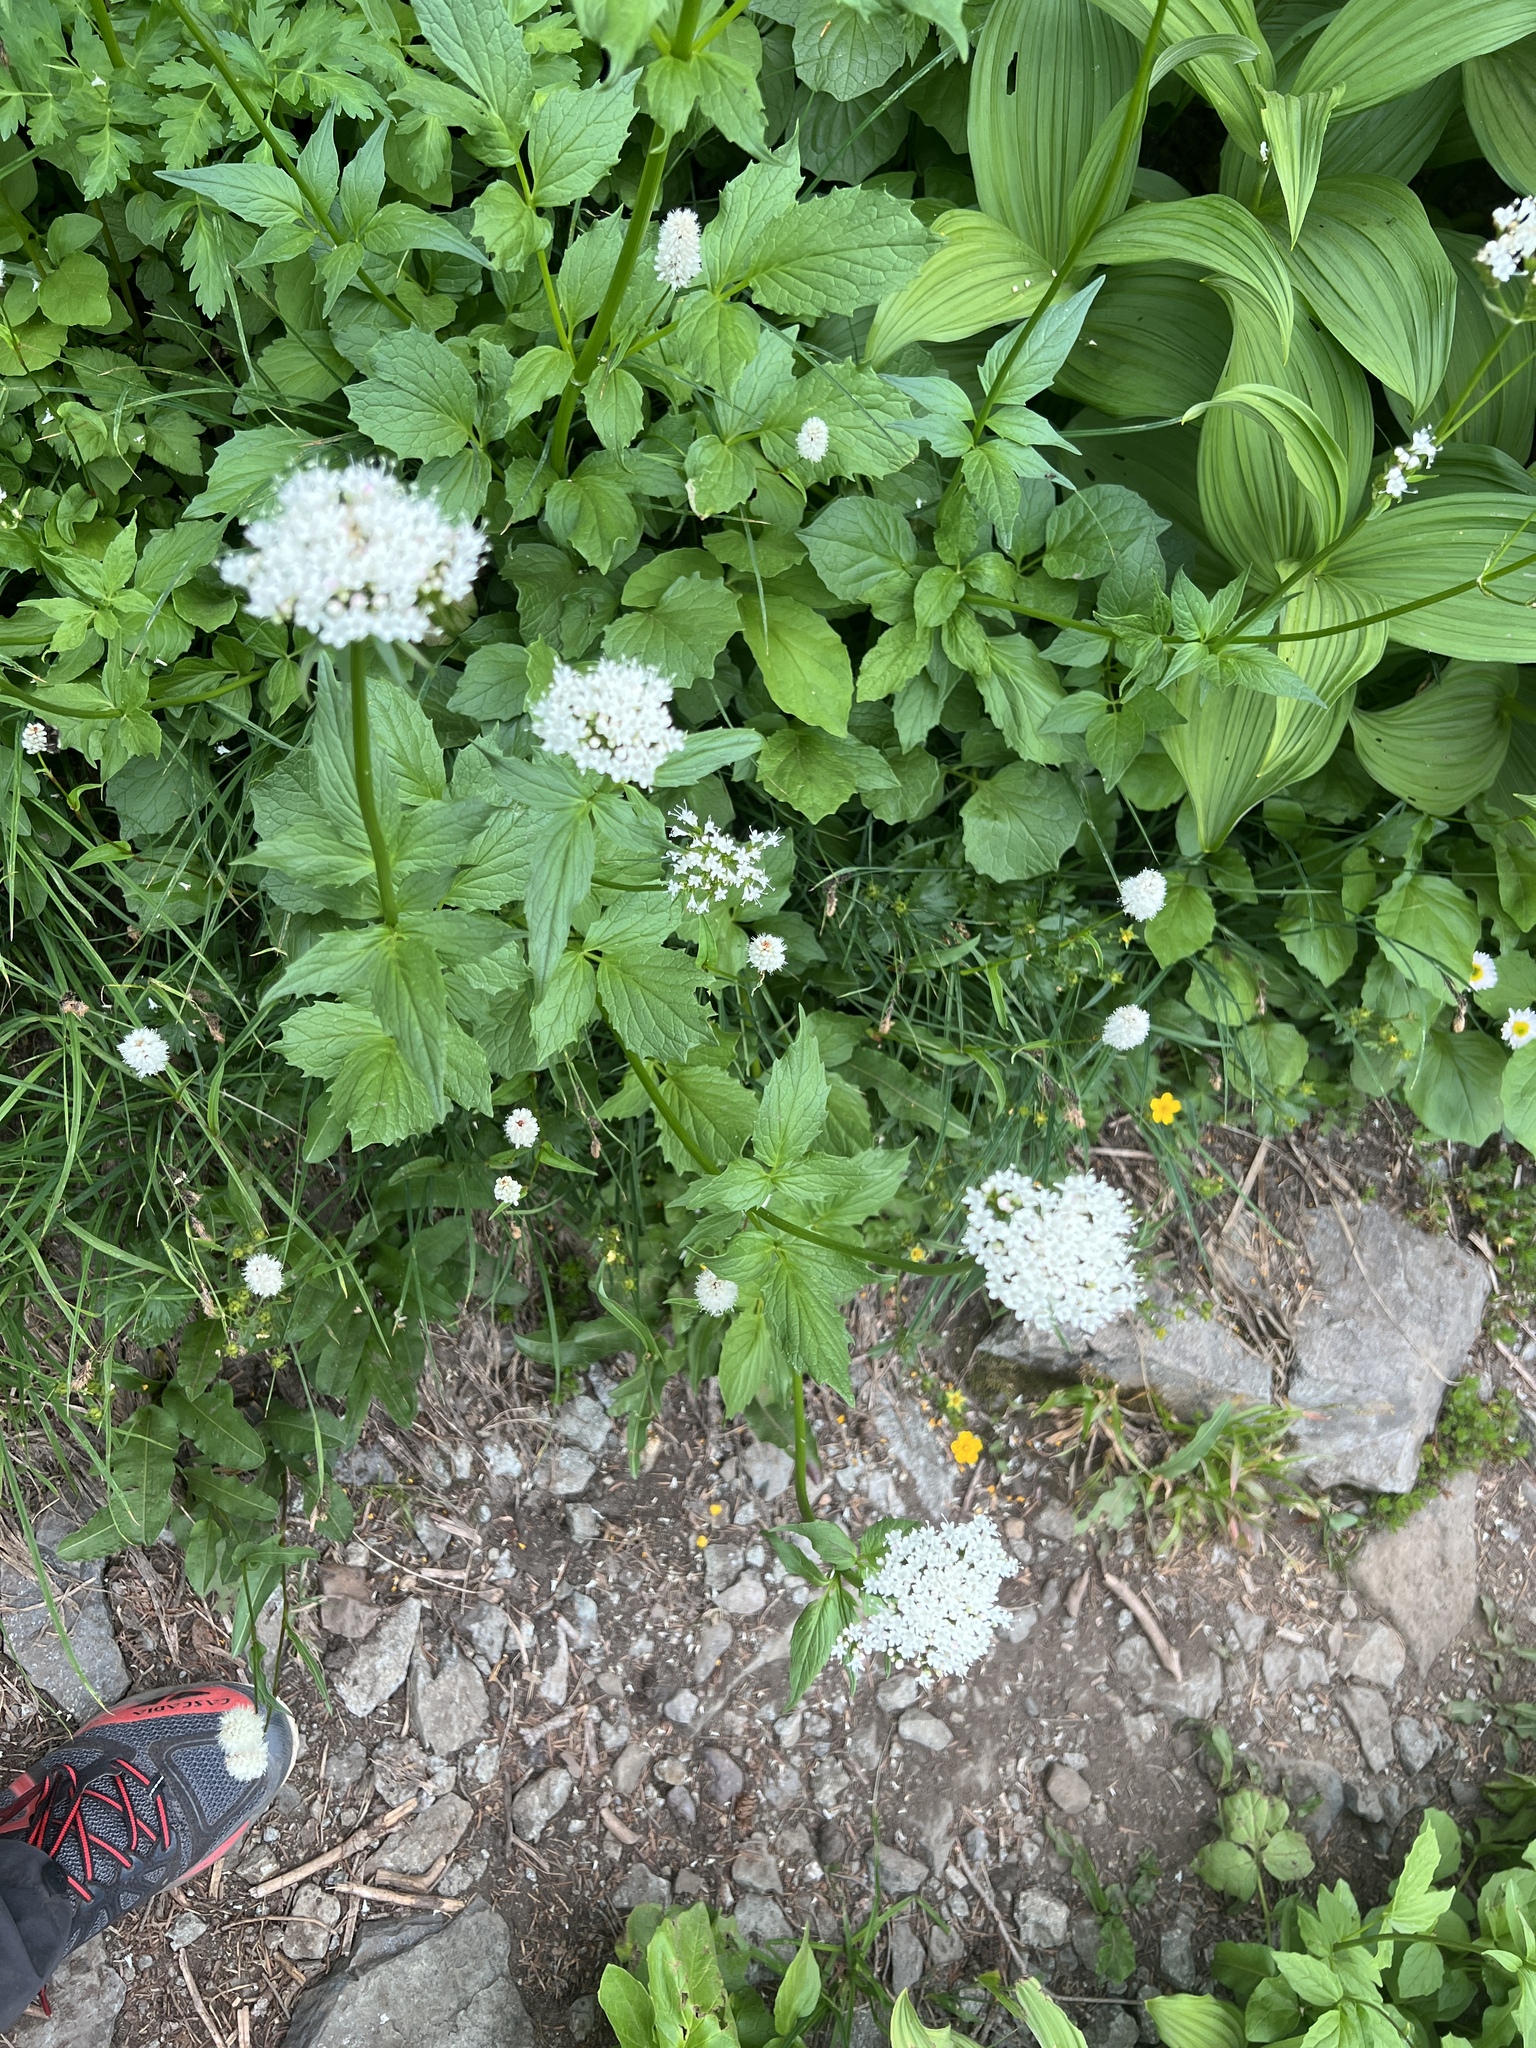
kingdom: Plantae
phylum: Tracheophyta
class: Magnoliopsida
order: Dipsacales
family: Caprifoliaceae
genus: Valeriana
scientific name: Valeriana sitchensis
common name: Pacific valerian
